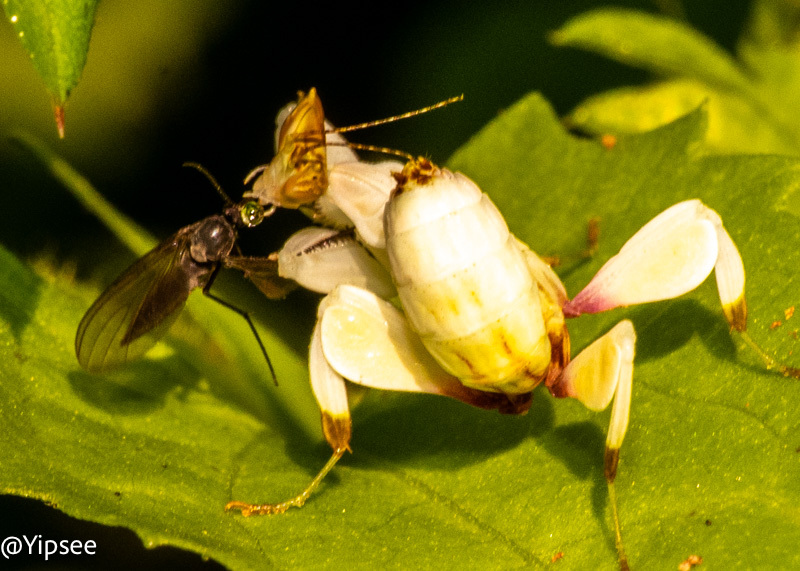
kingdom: Animalia
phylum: Arthropoda
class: Insecta
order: Mantodea
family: Hymenopodidae
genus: Hymenopus
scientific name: Hymenopus coronatus
